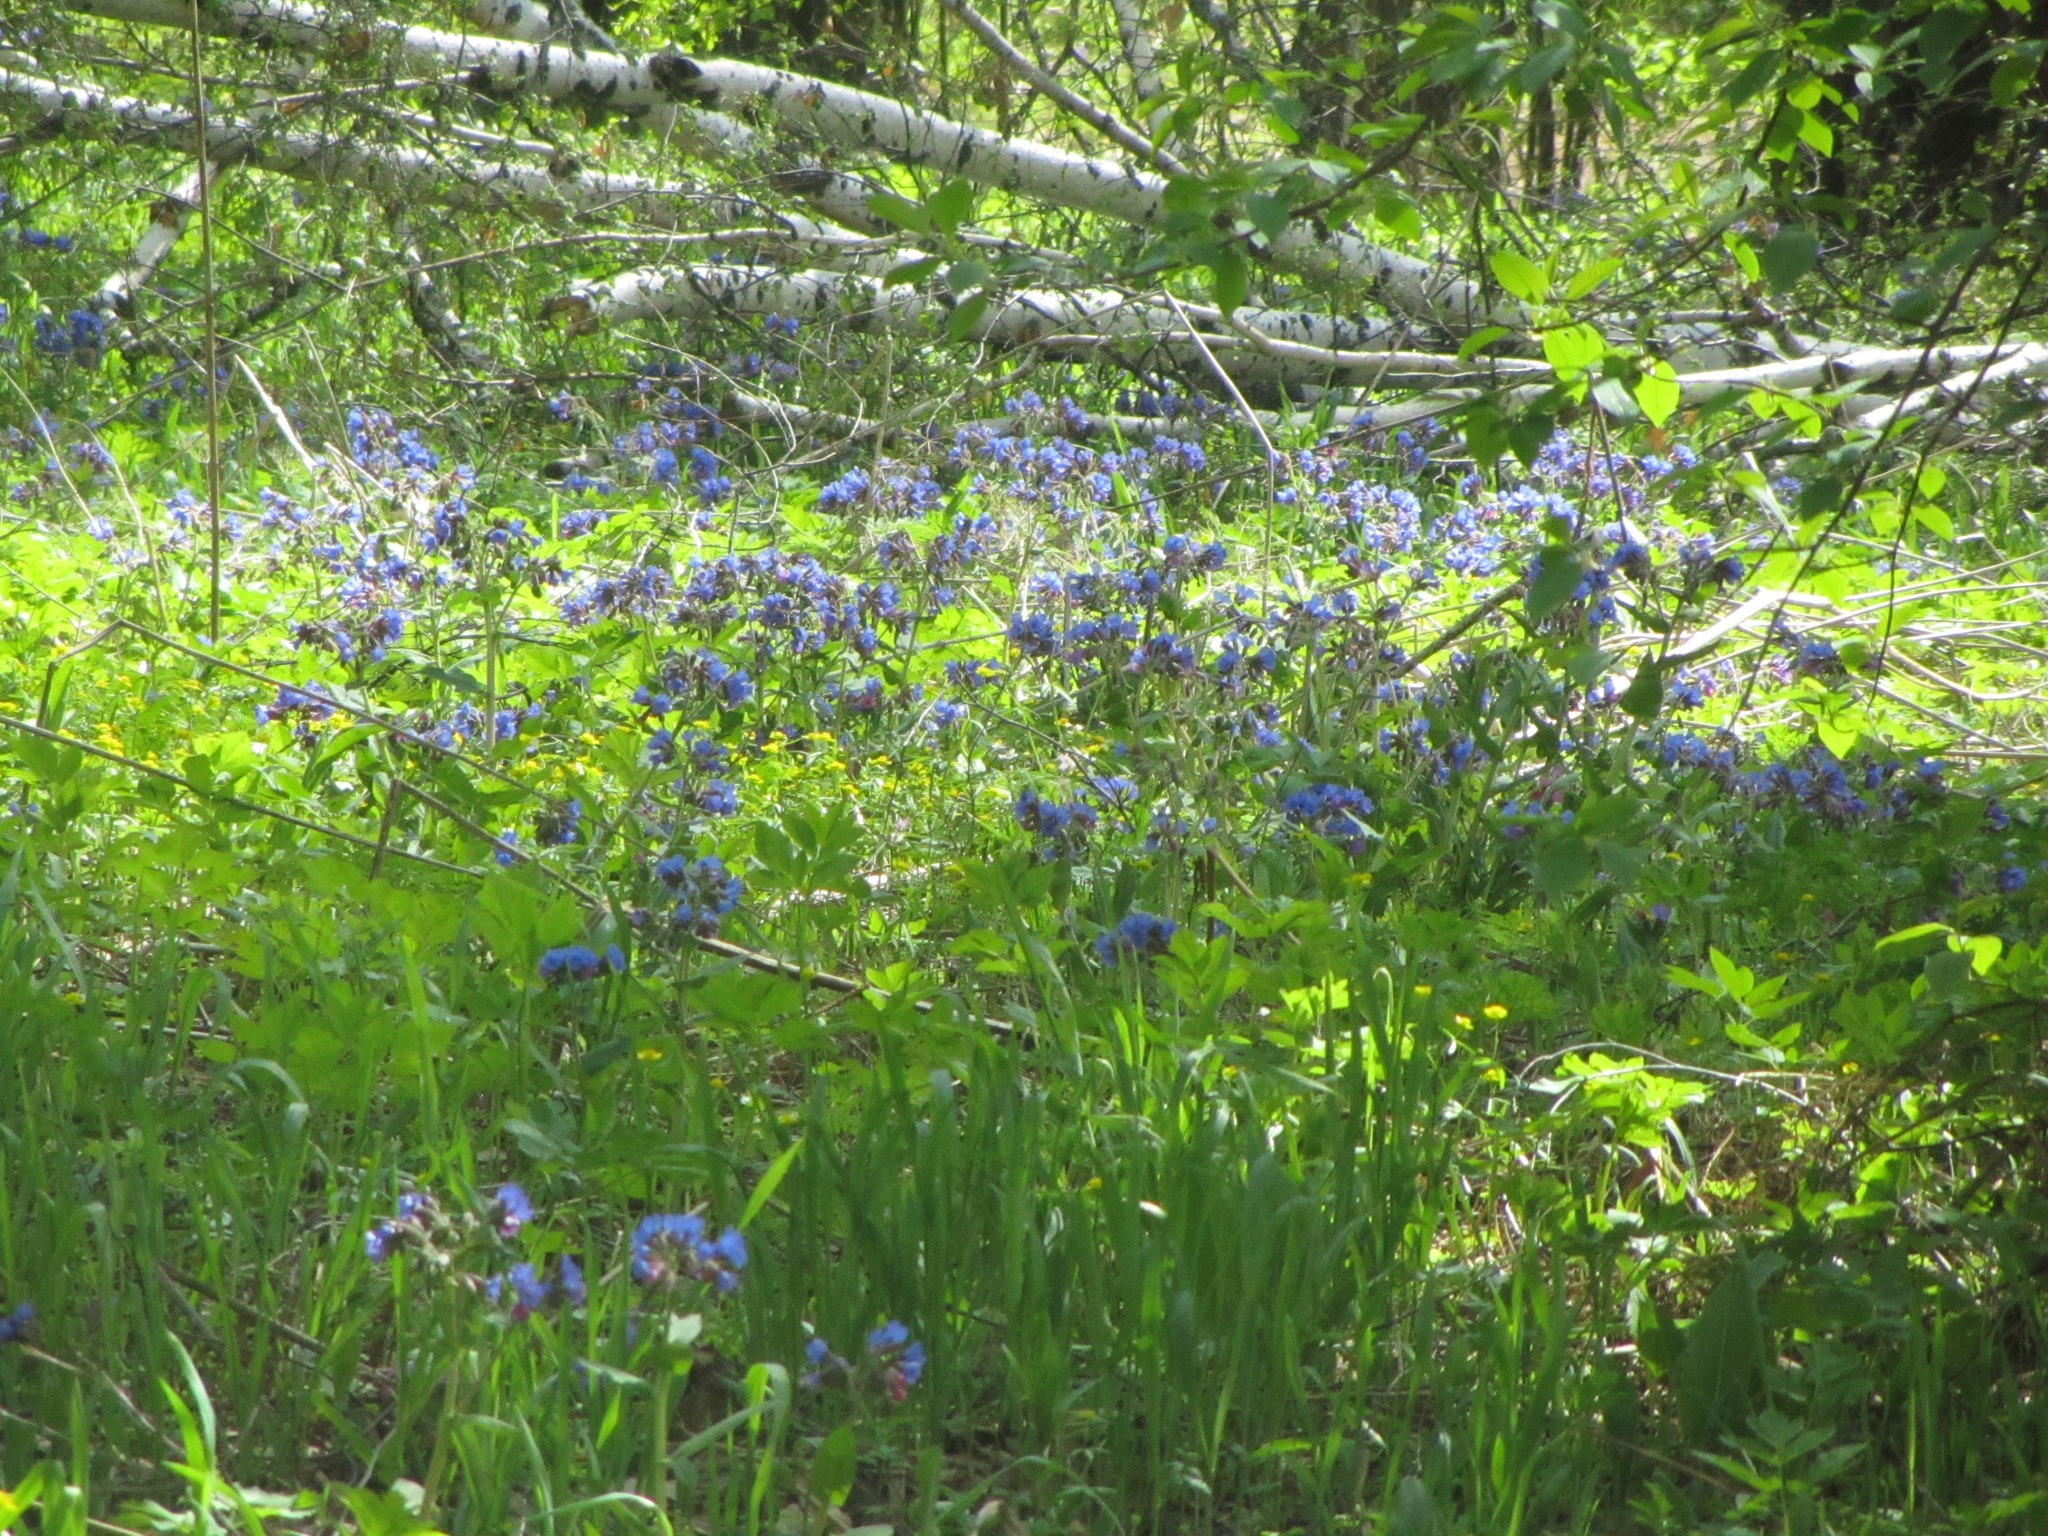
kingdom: Plantae
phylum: Tracheophyta
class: Magnoliopsida
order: Boraginales
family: Boraginaceae
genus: Pulmonaria
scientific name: Pulmonaria mollis
